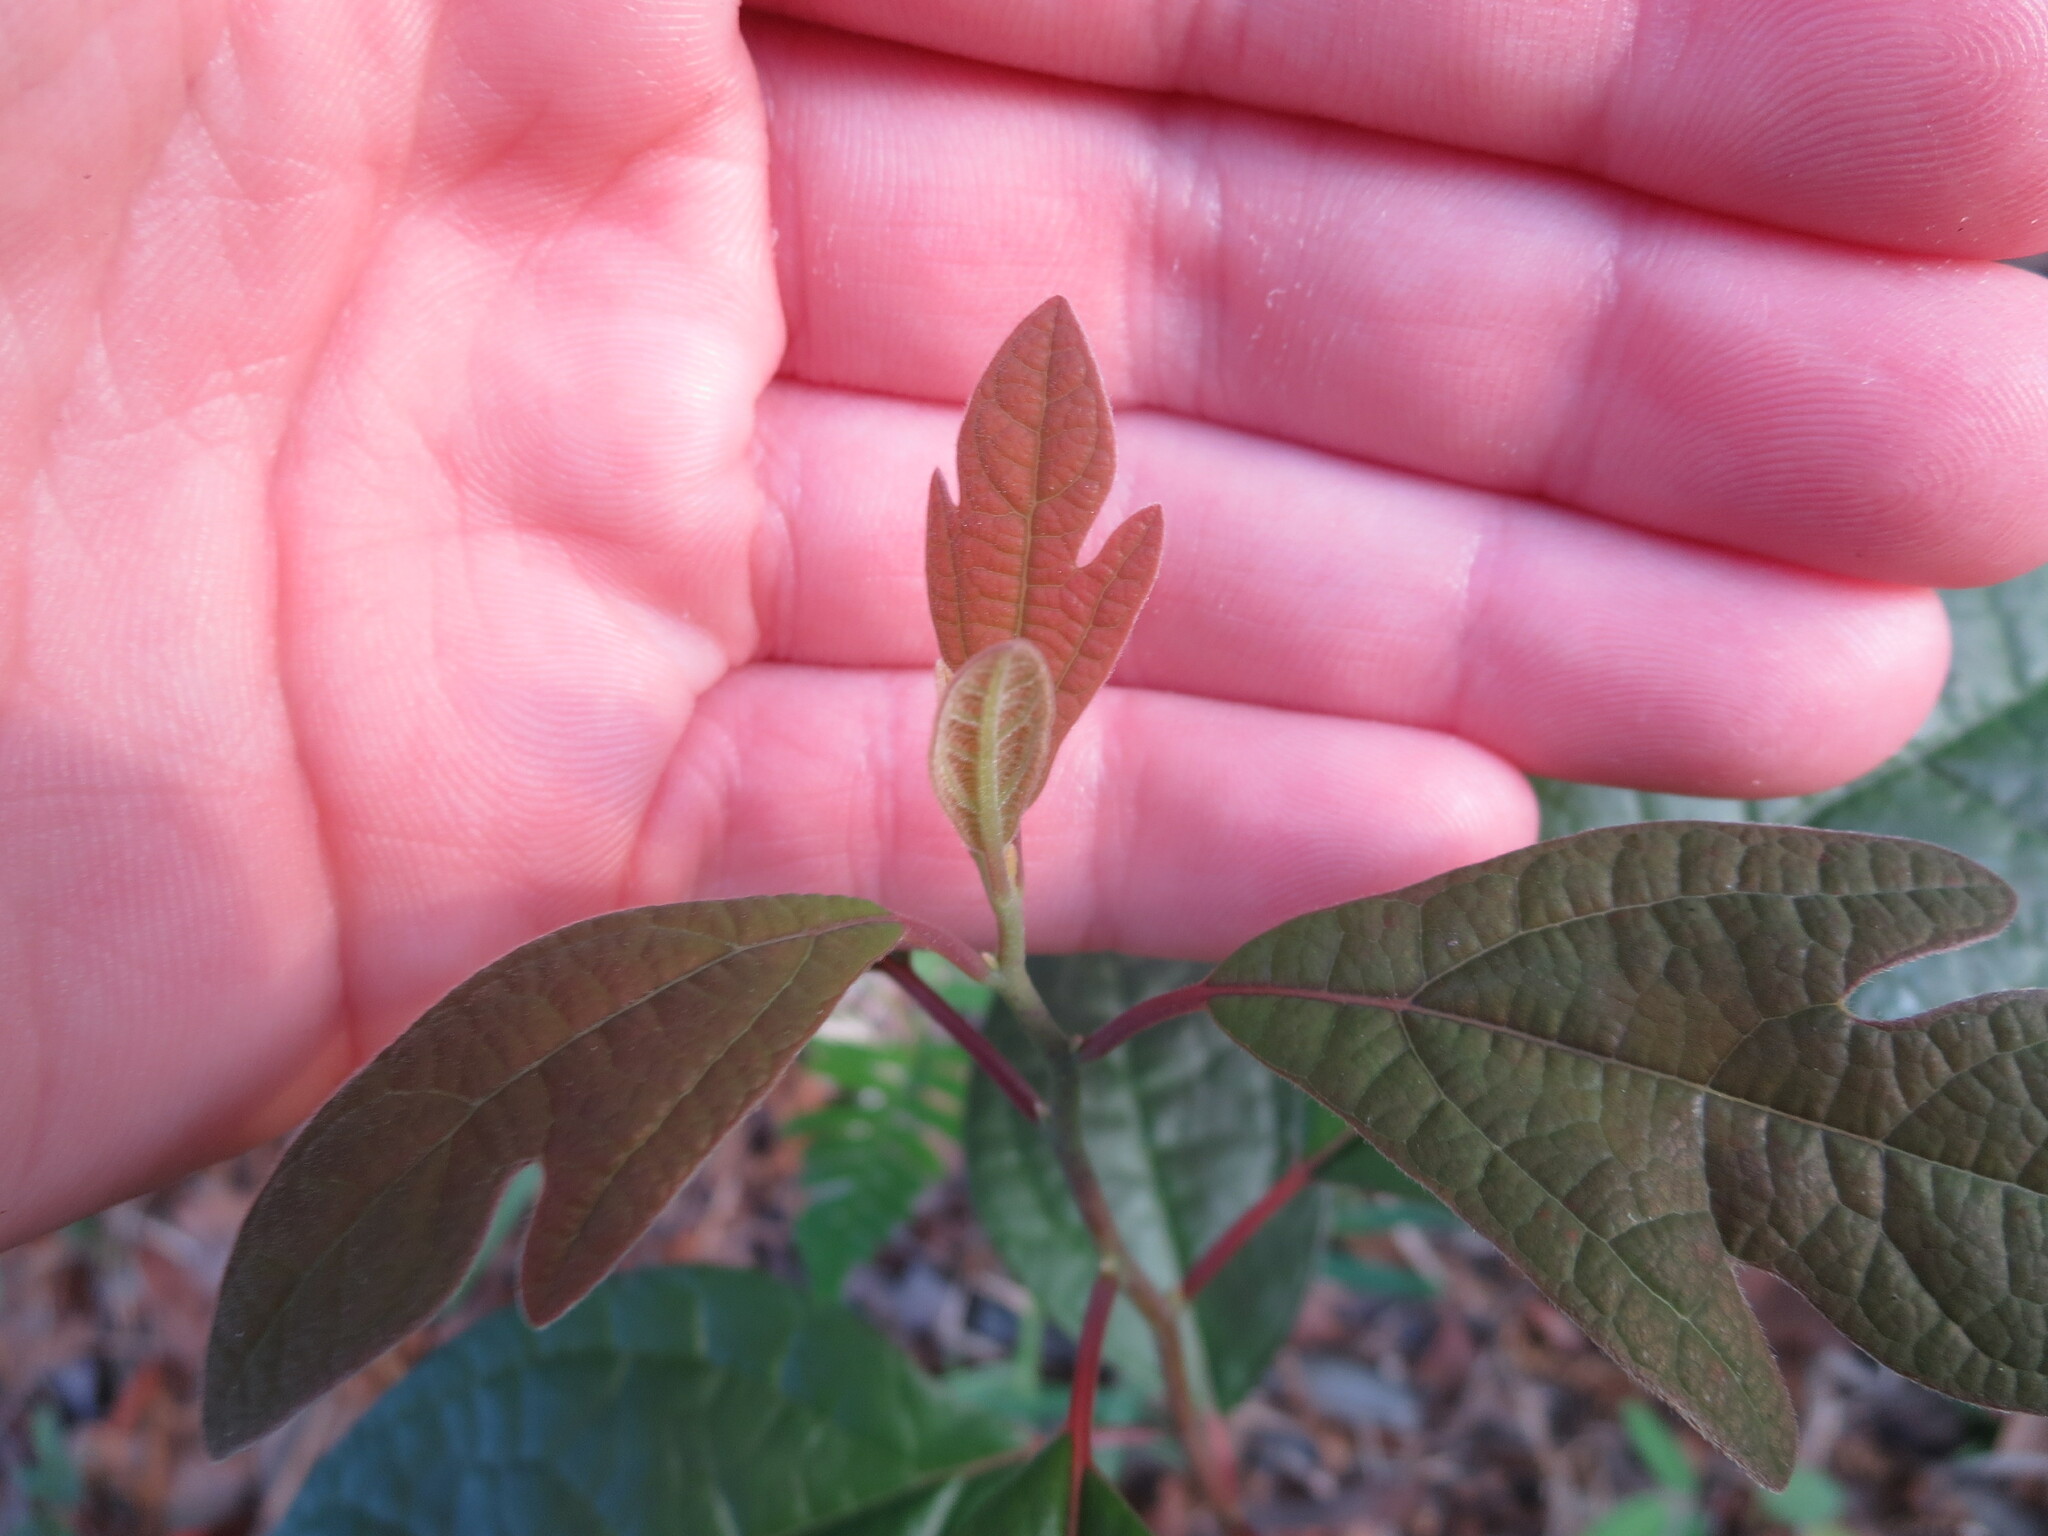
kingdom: Plantae
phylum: Tracheophyta
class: Magnoliopsida
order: Laurales
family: Lauraceae
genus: Sassafras
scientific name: Sassafras albidum
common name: Sassafras
